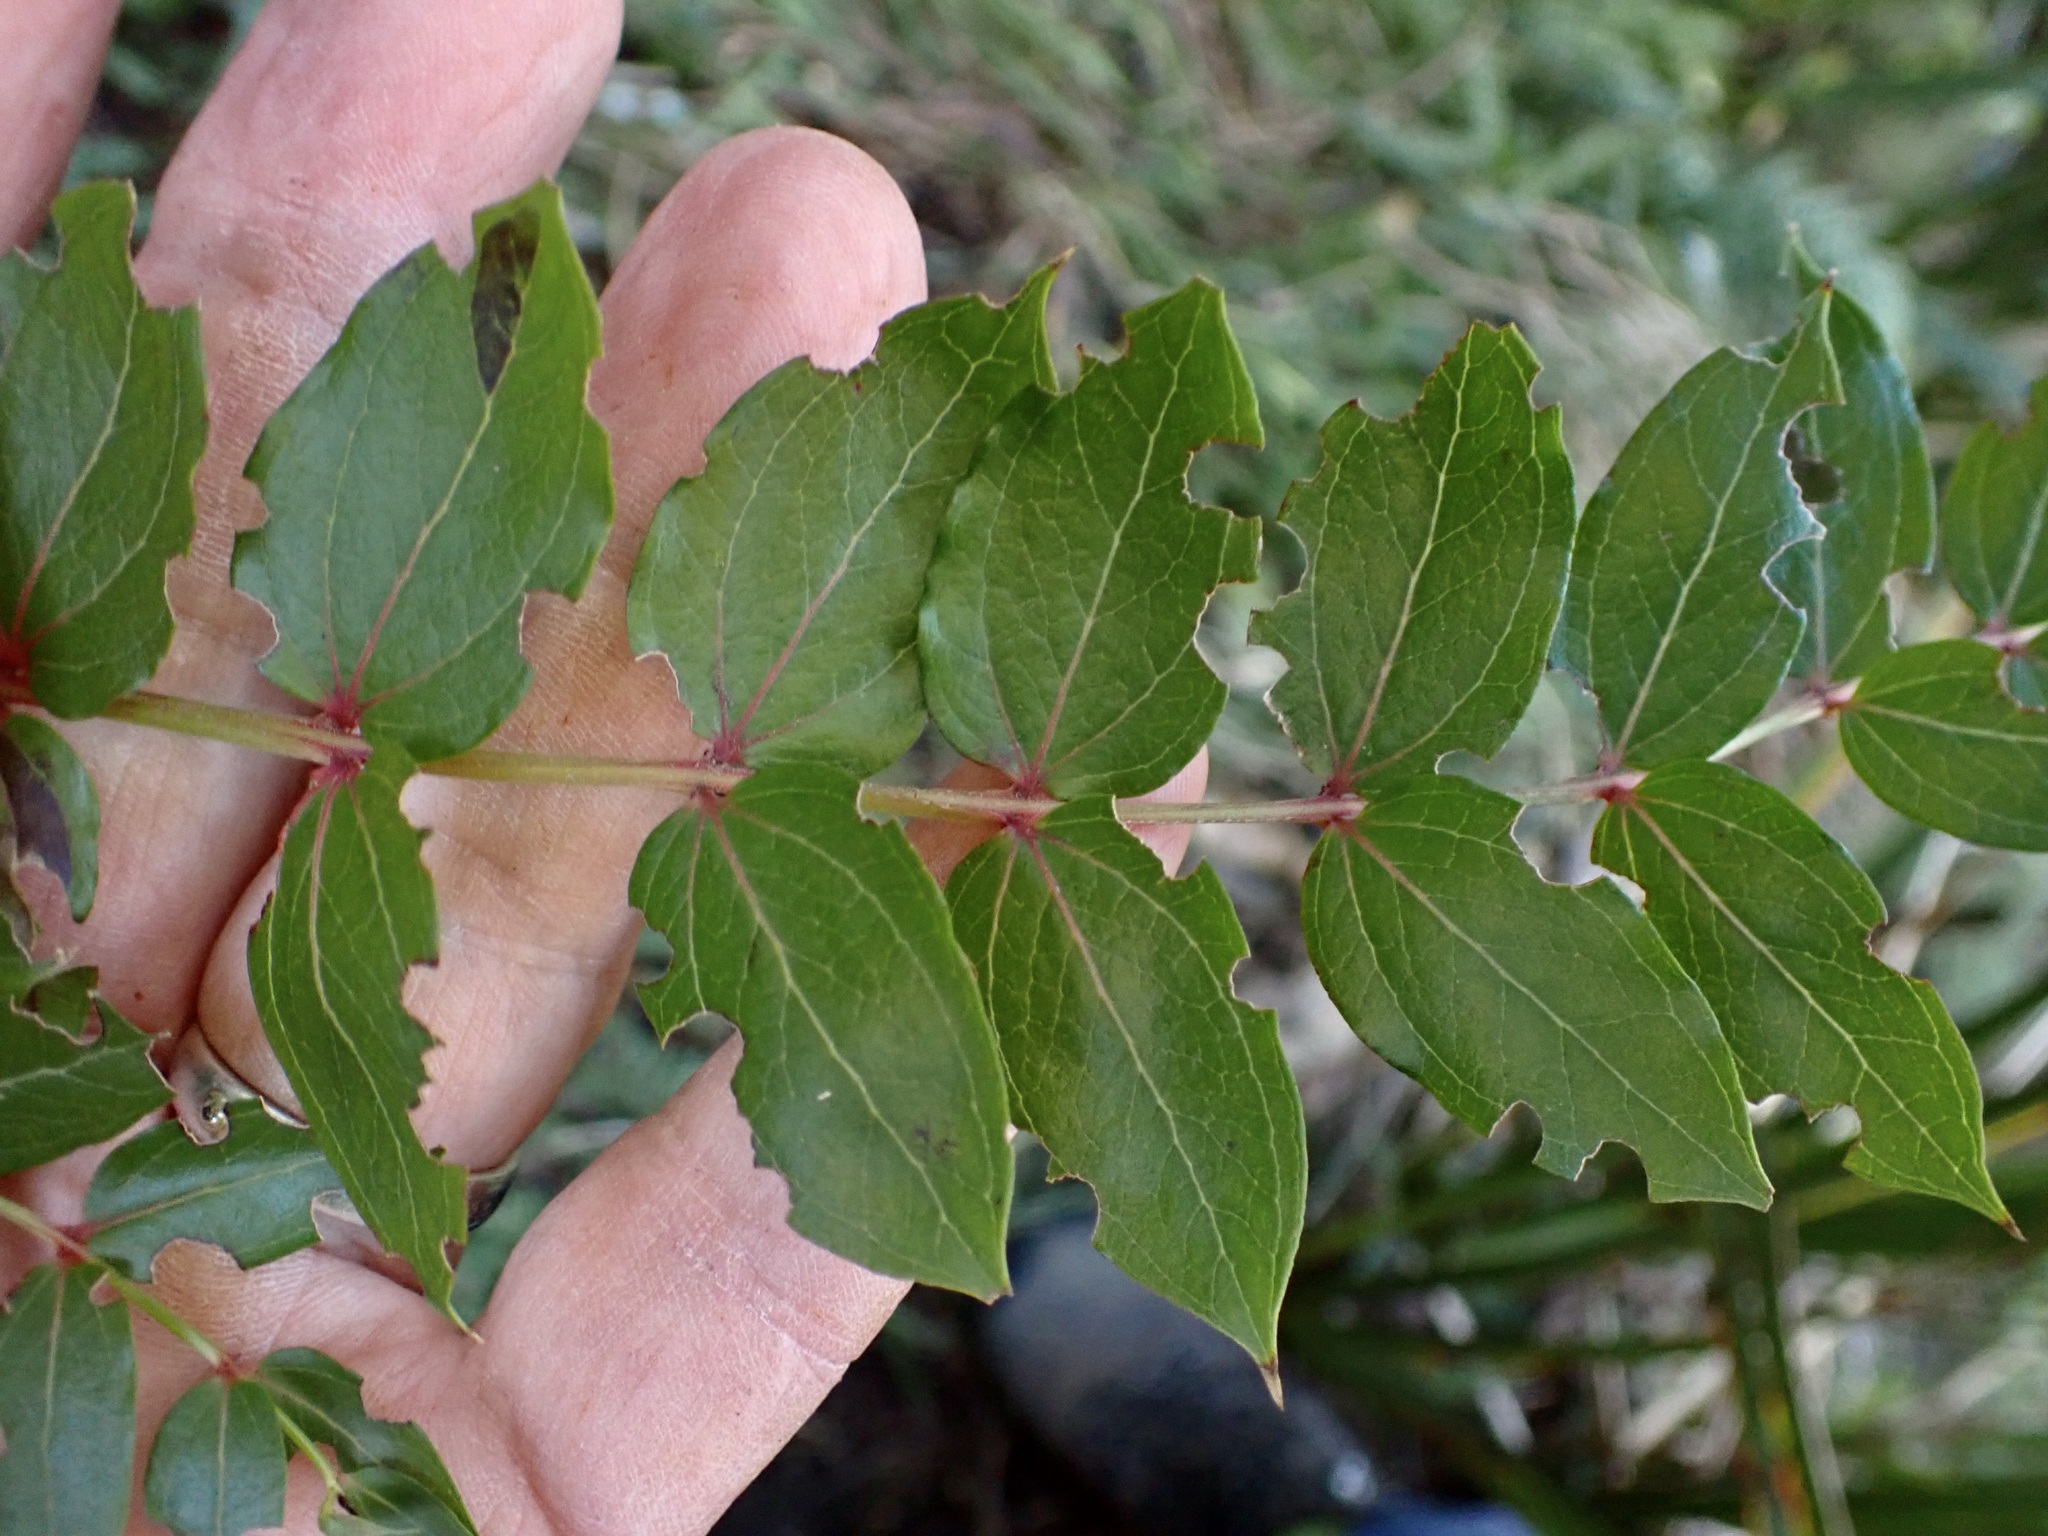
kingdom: Plantae
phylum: Tracheophyta
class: Magnoliopsida
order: Cucurbitales
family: Coriariaceae
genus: Coriaria
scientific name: Coriaria arborea
